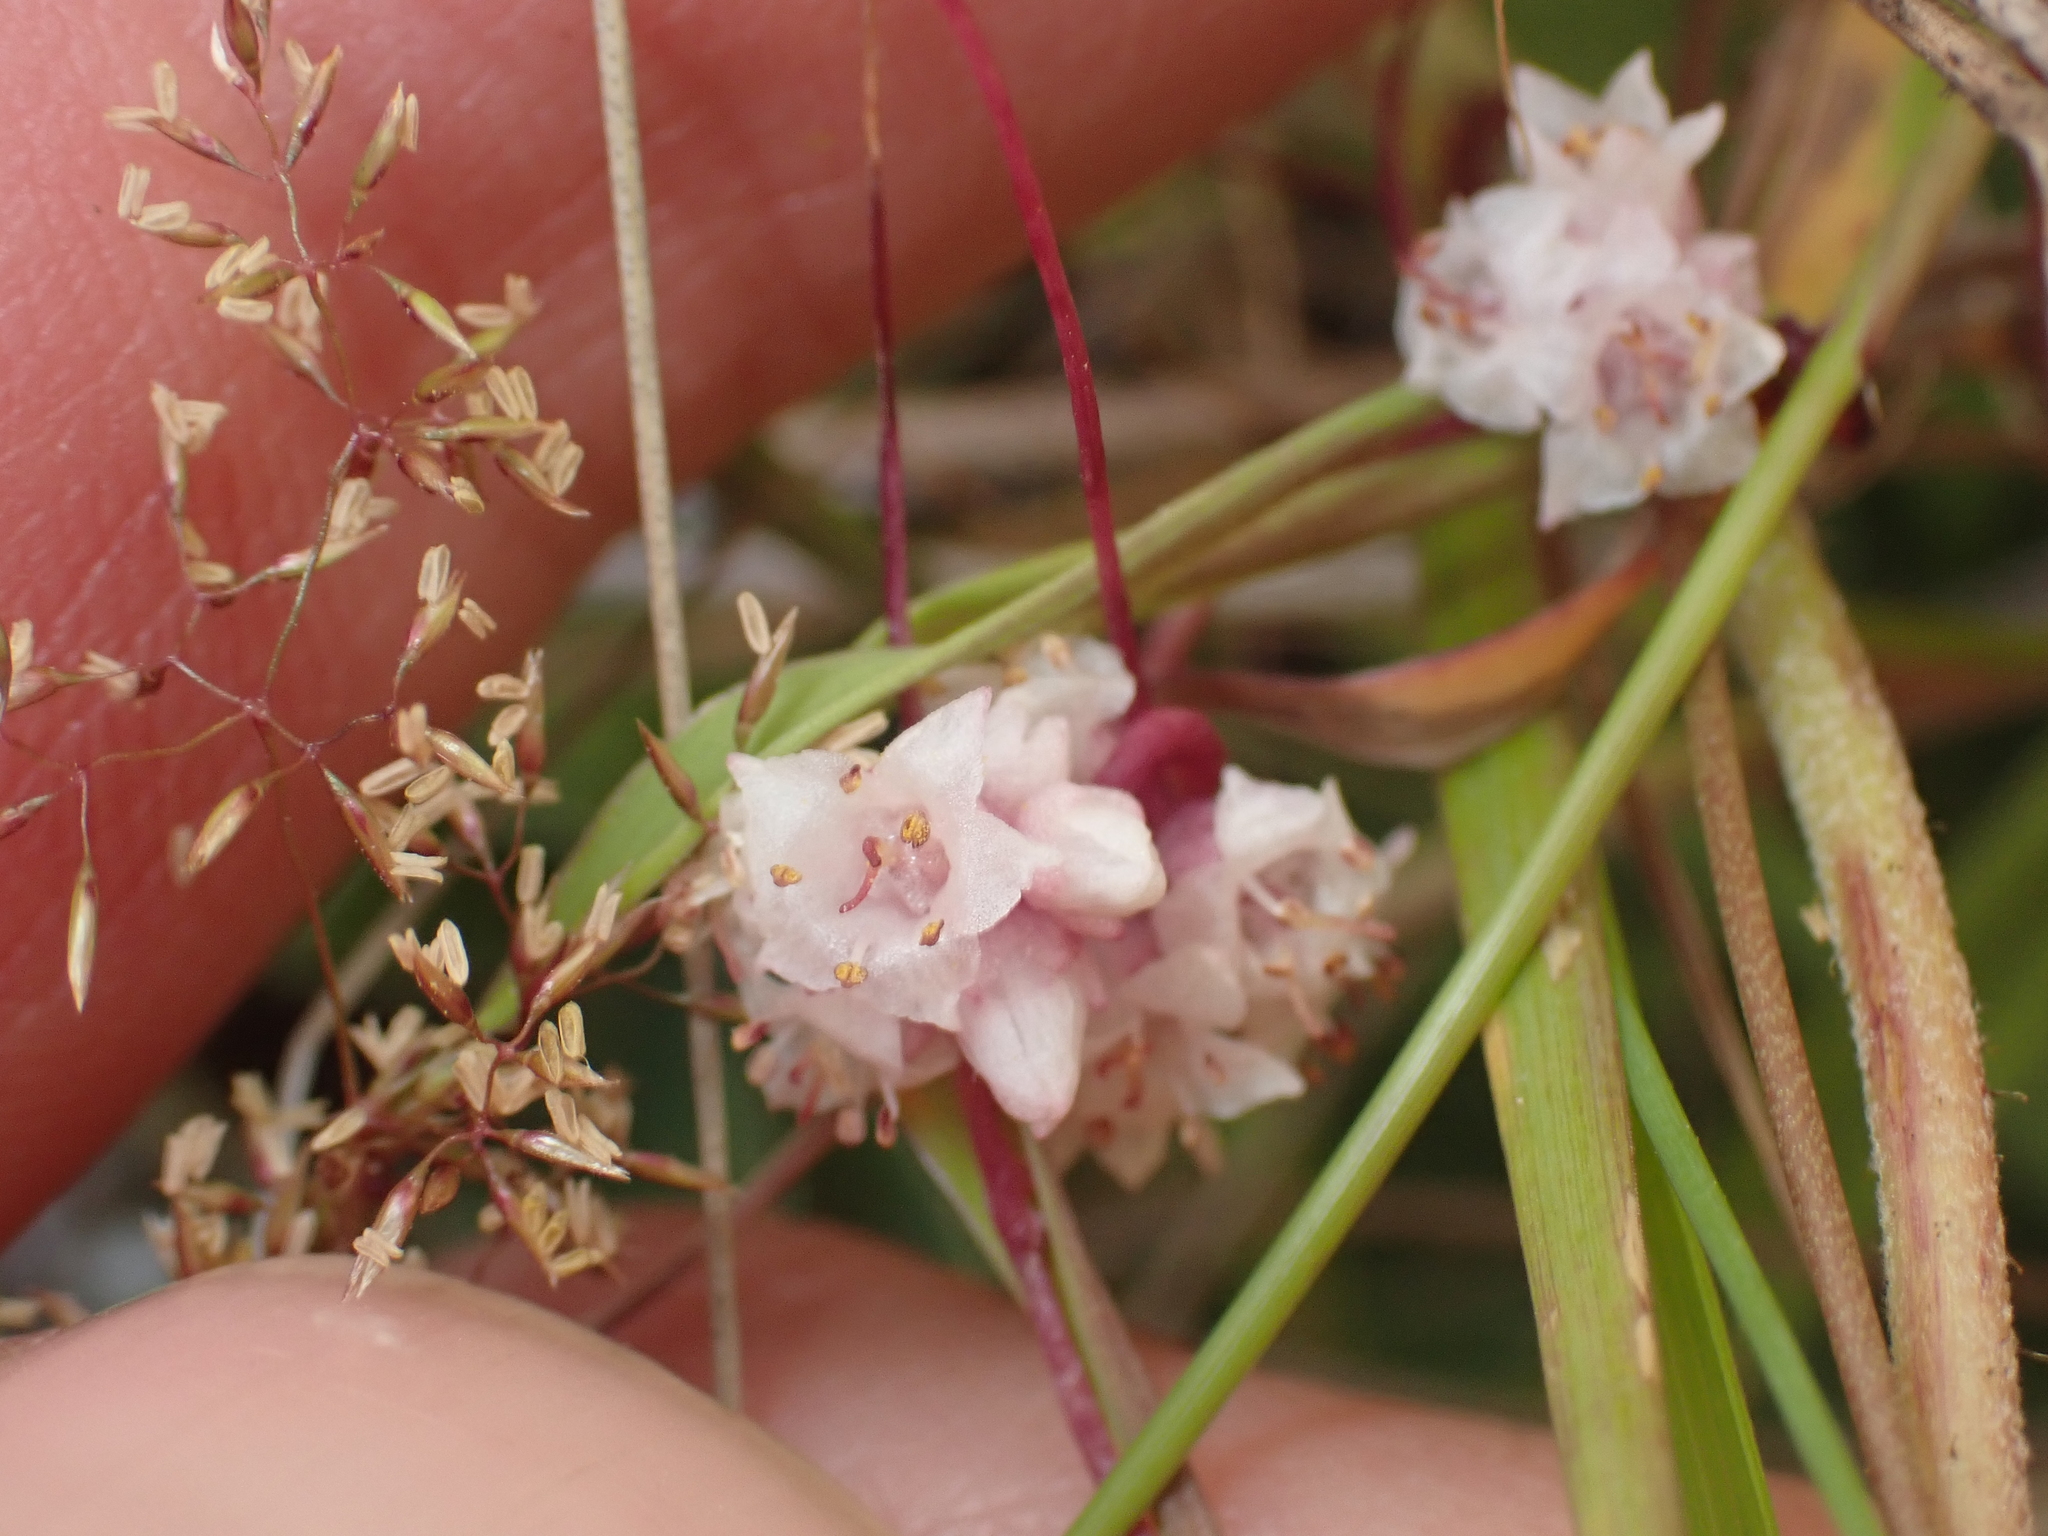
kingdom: Plantae
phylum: Tracheophyta
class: Magnoliopsida
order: Solanales
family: Convolvulaceae
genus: Cuscuta
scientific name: Cuscuta epithymum
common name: Clover dodder
